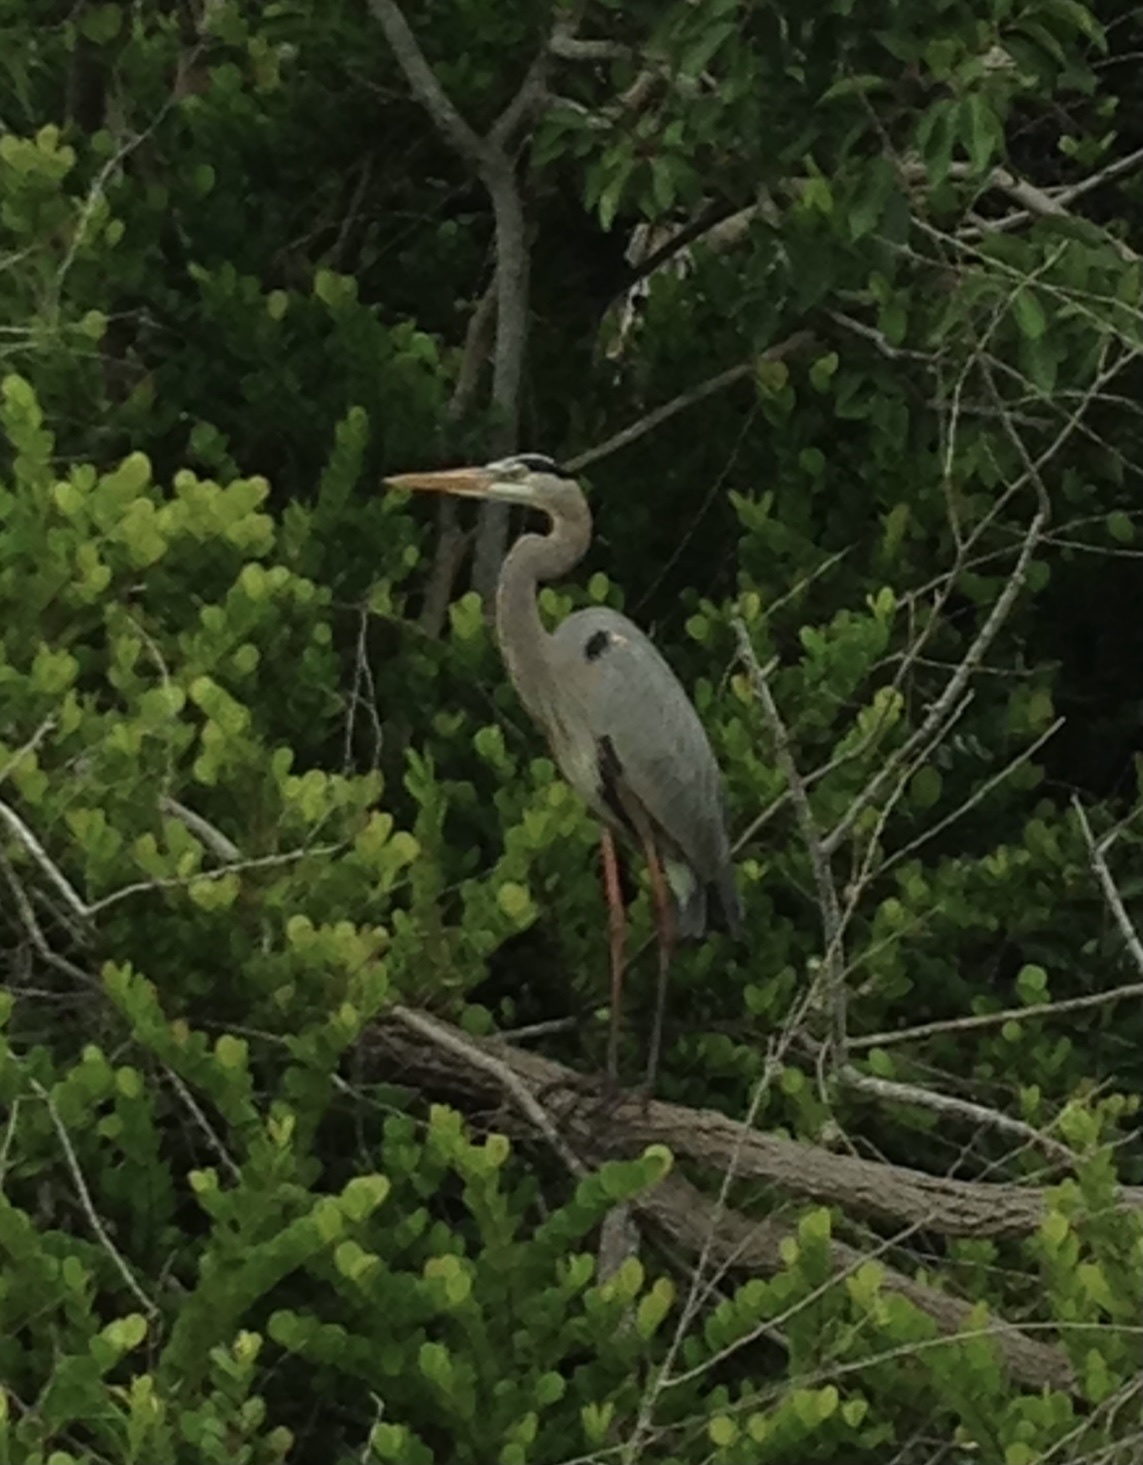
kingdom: Animalia
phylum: Chordata
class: Aves
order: Pelecaniformes
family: Ardeidae
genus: Ardea
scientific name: Ardea herodias
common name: Great blue heron
